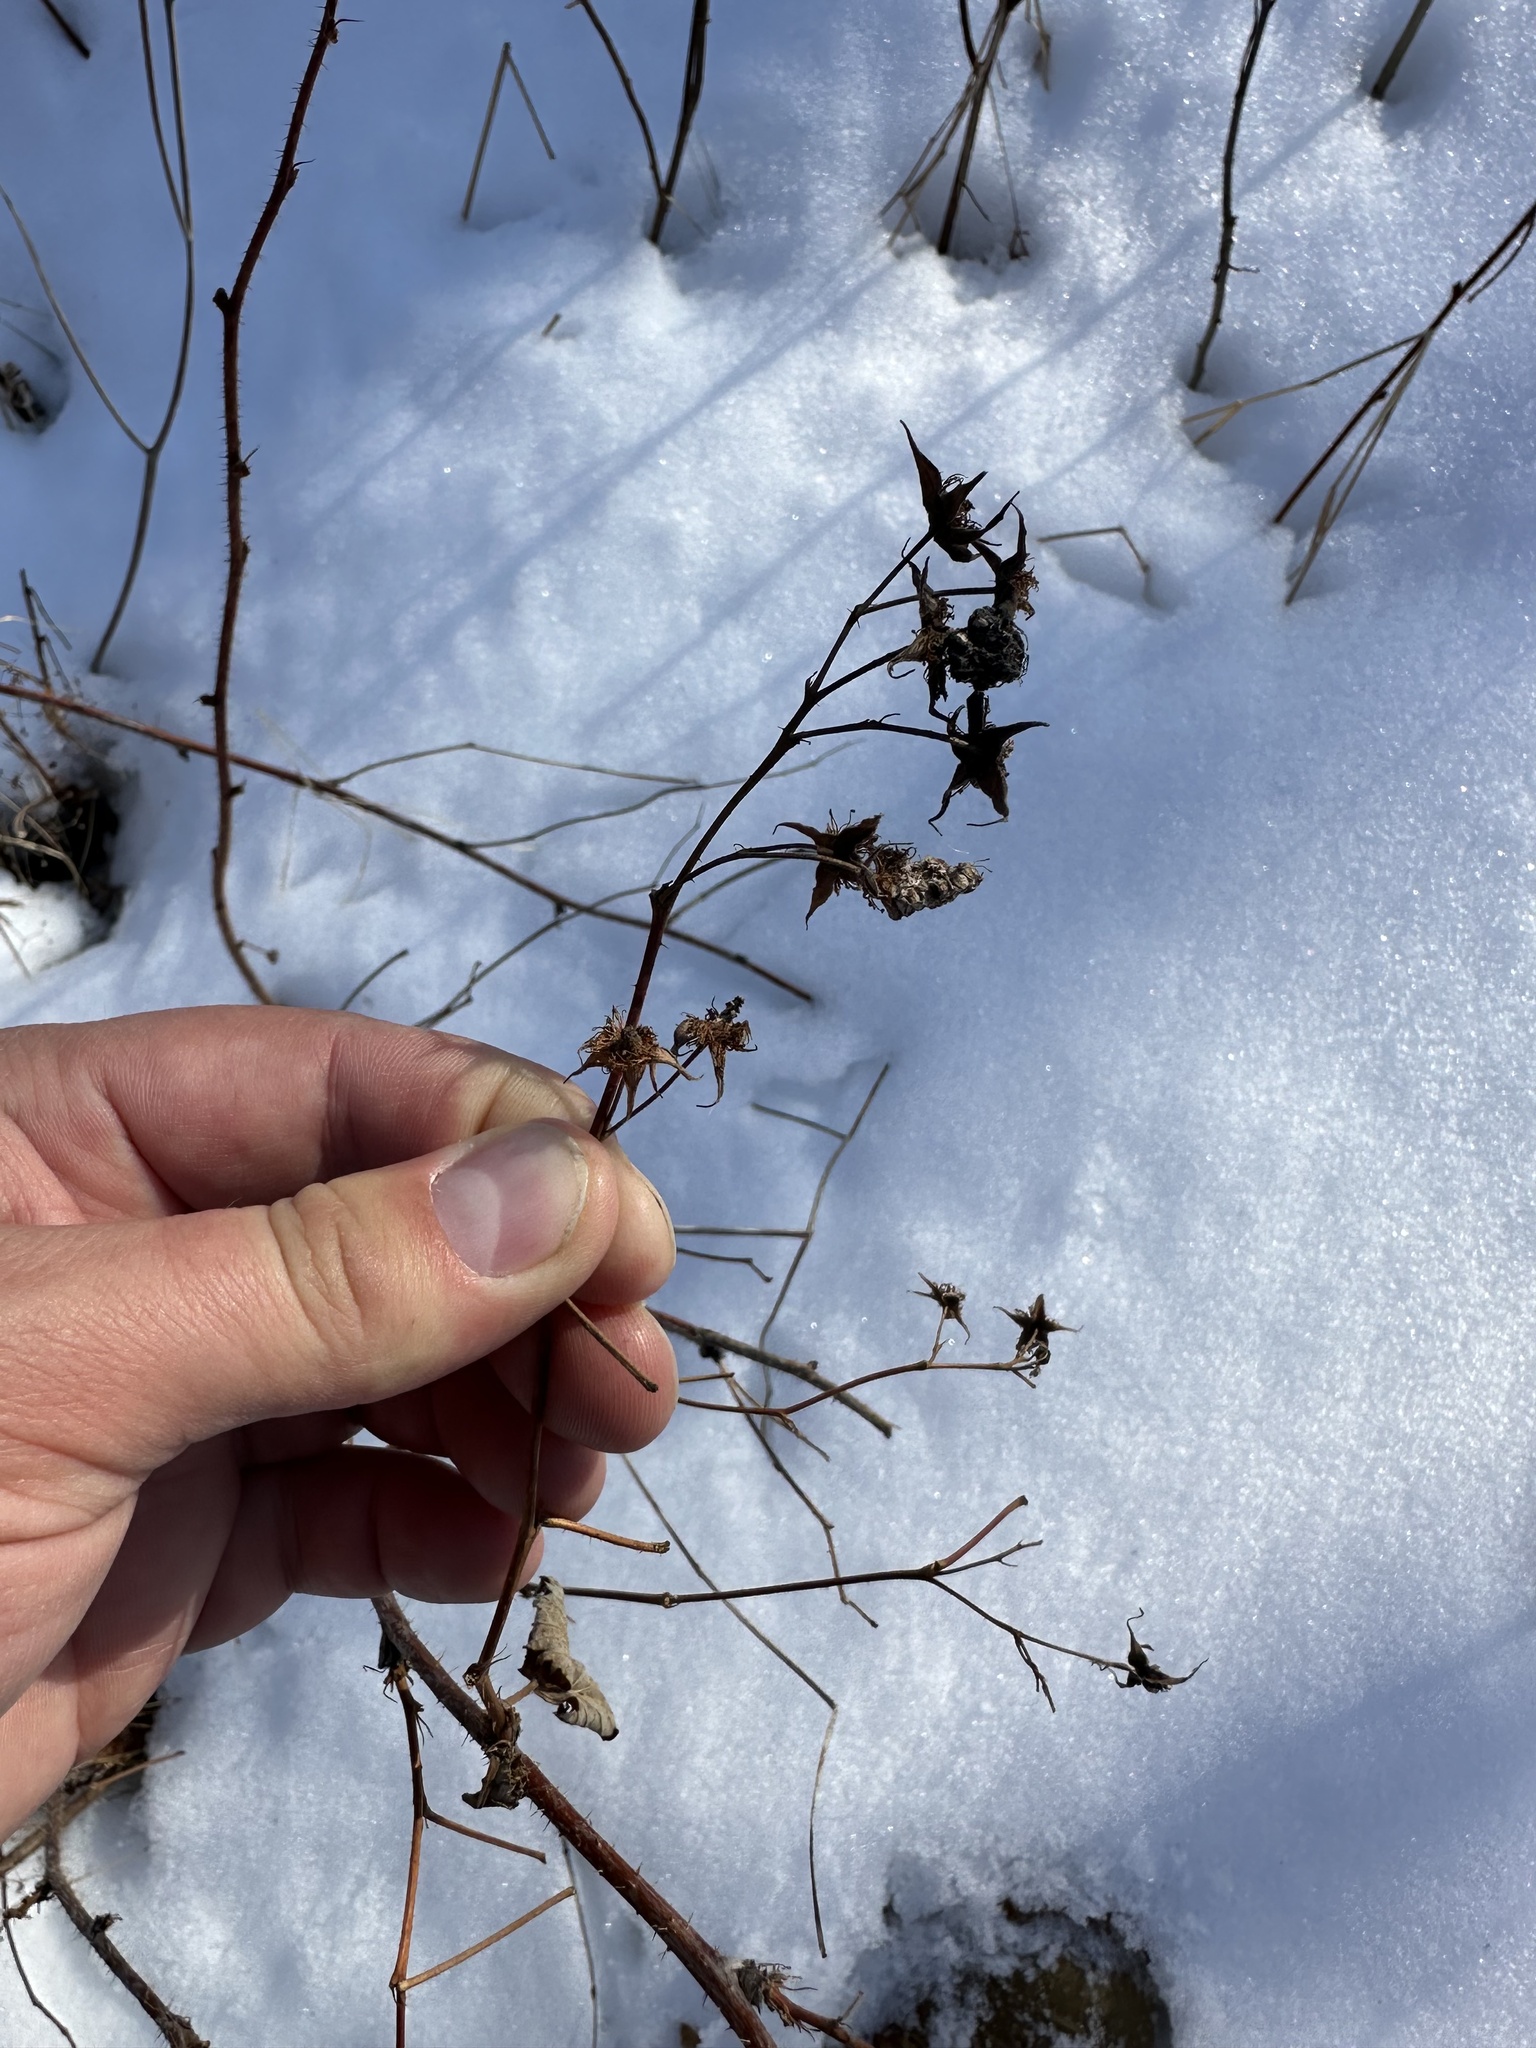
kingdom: Plantae
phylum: Tracheophyta
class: Magnoliopsida
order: Rosales
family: Rosaceae
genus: Rubus
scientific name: Rubus idaeus
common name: Raspberry
